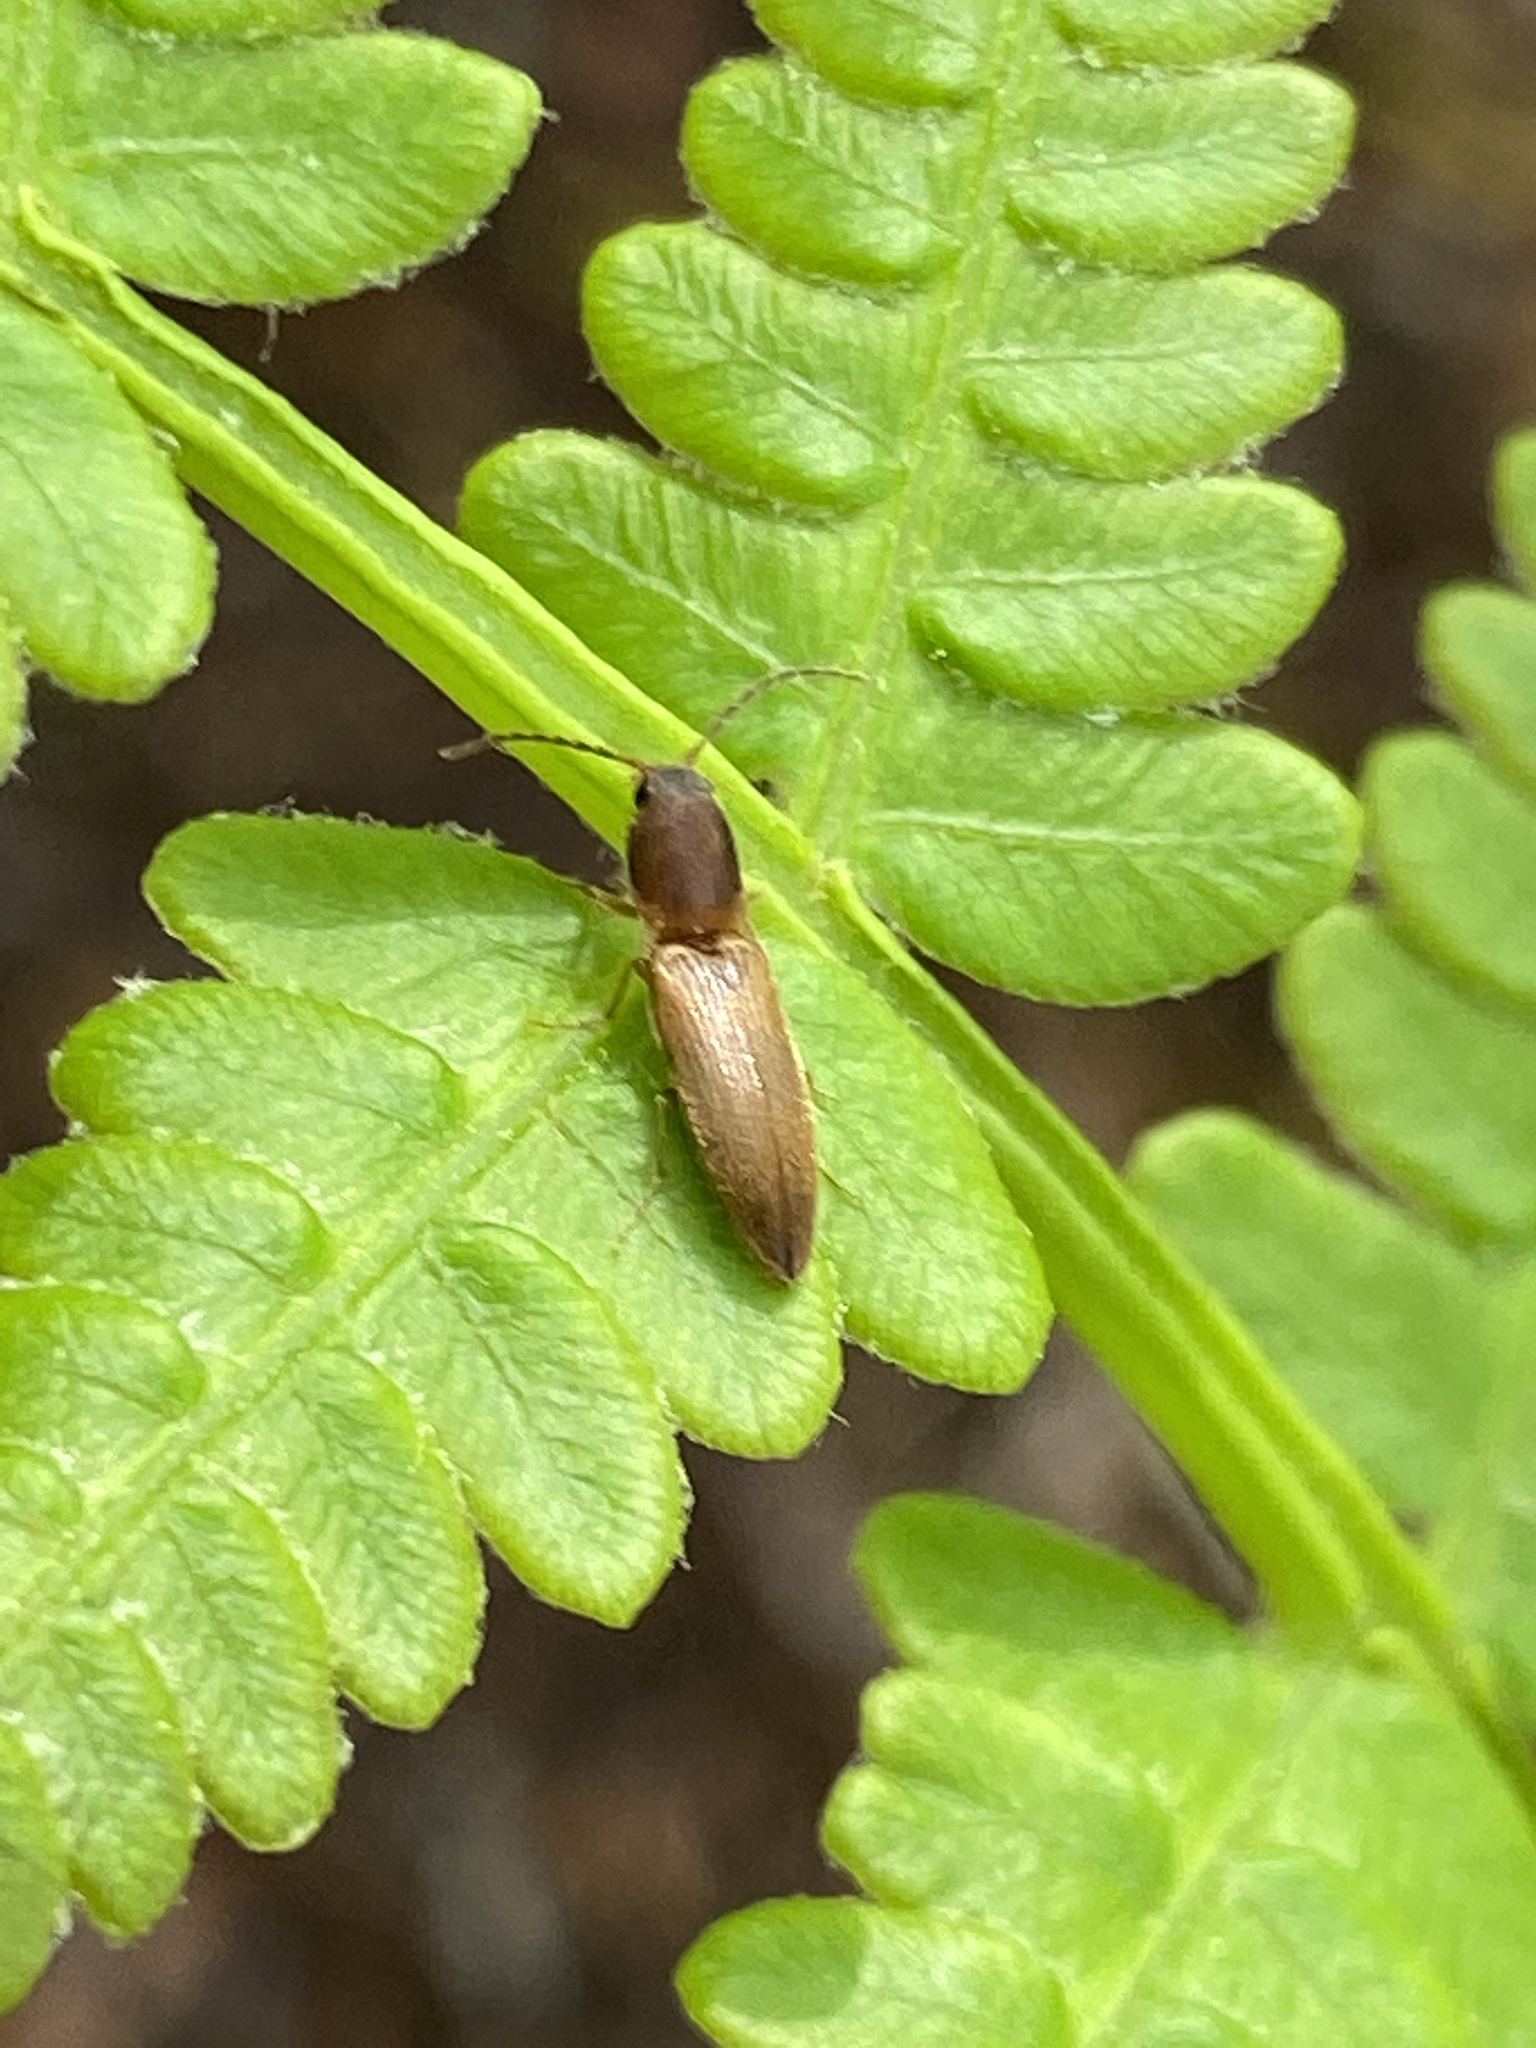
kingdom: Animalia
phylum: Arthropoda
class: Insecta
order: Coleoptera
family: Elateridae
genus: Dolerosomus
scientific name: Dolerosomus silaceus
